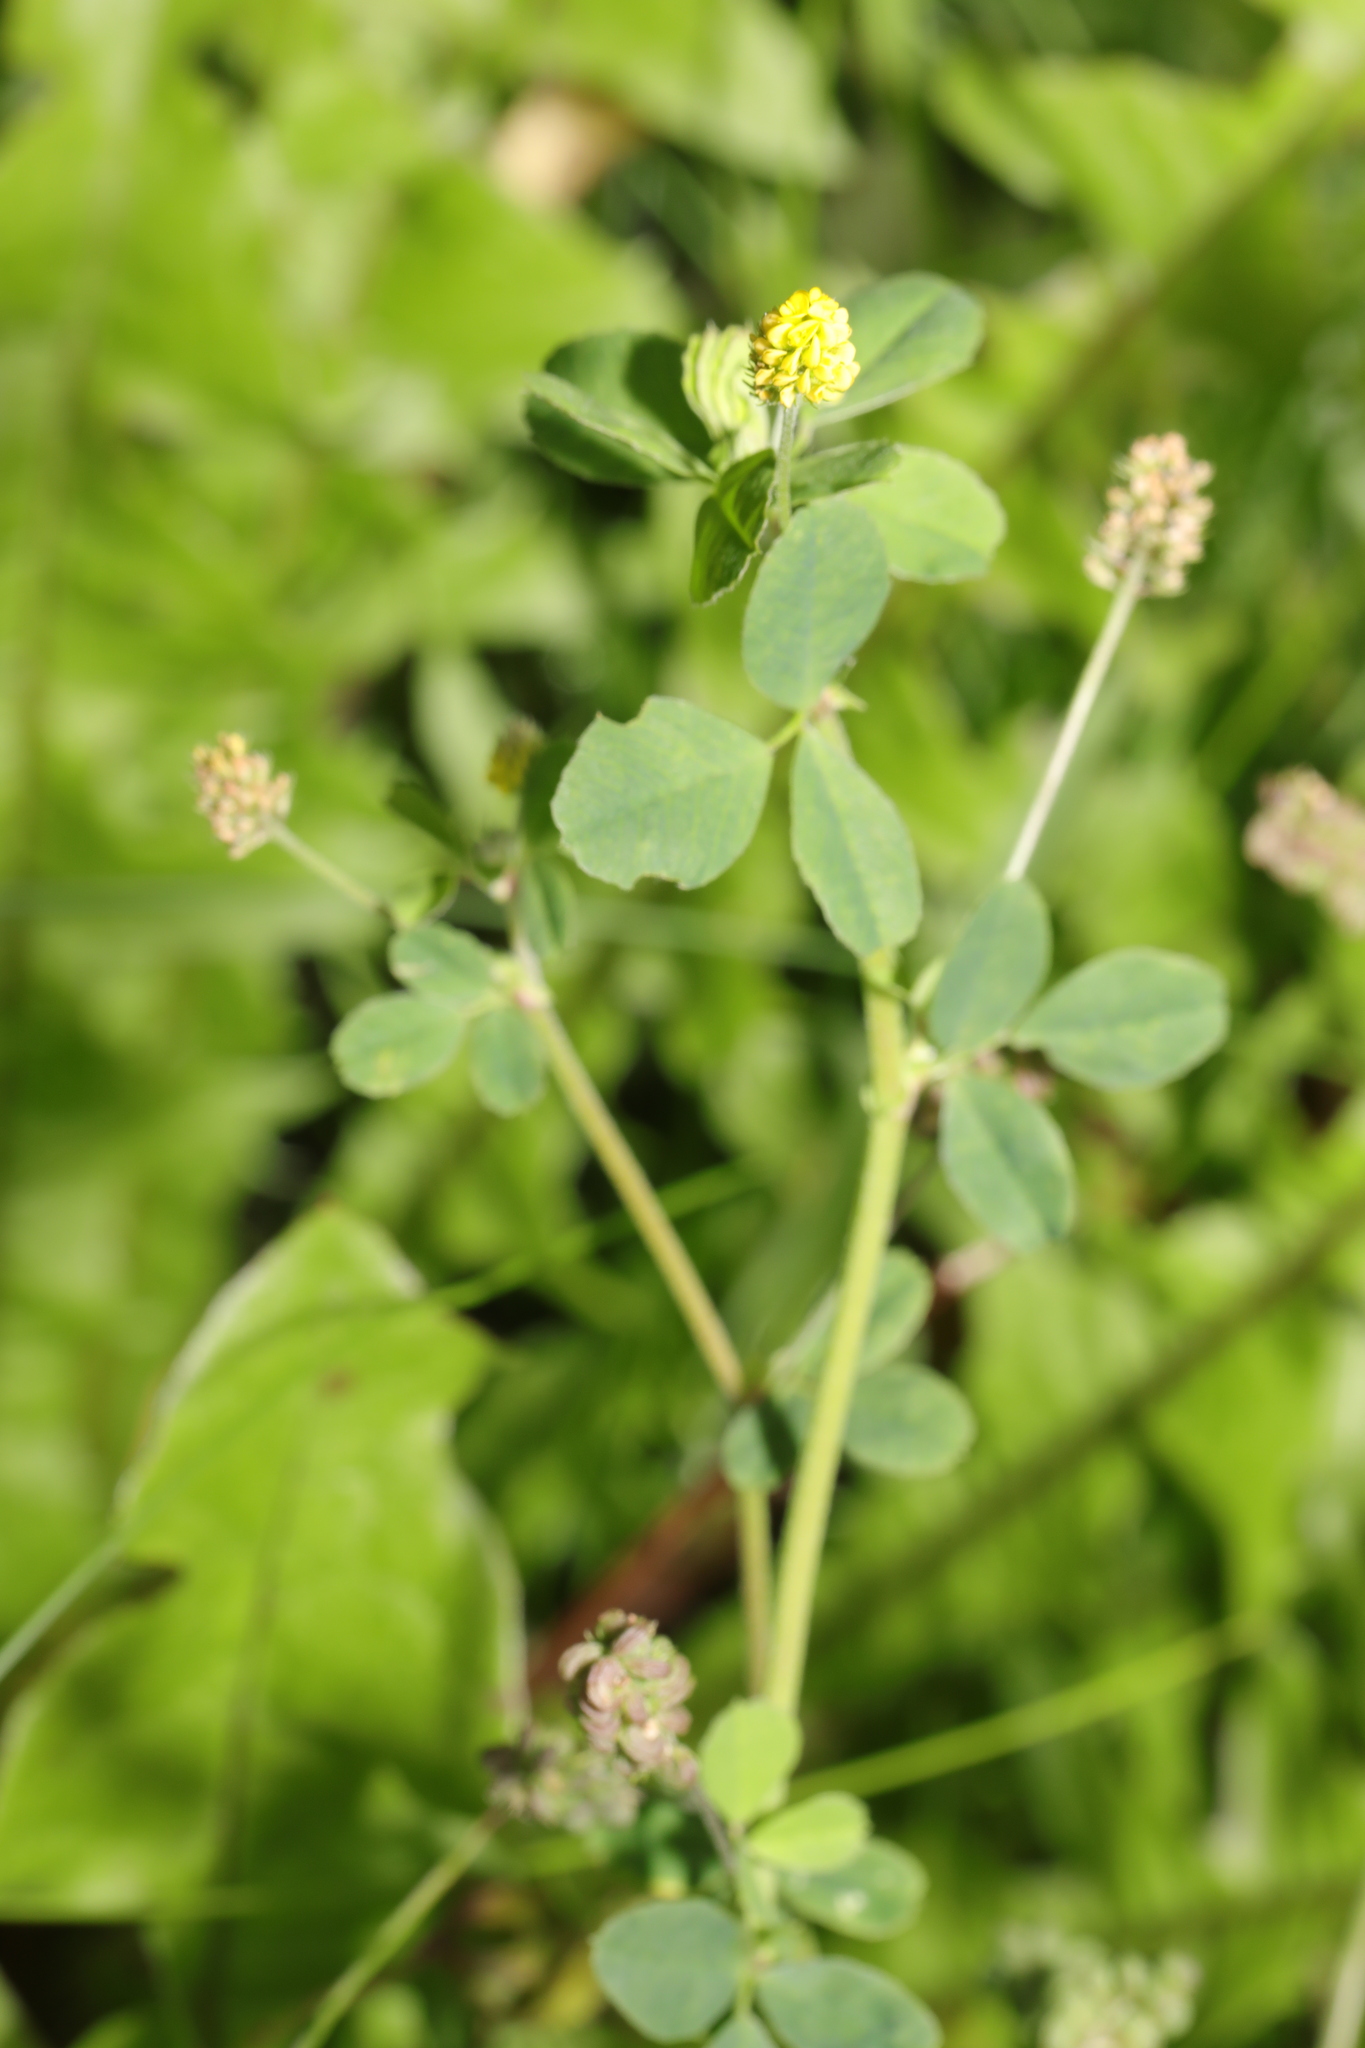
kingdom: Plantae
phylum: Tracheophyta
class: Magnoliopsida
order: Fabales
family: Fabaceae
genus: Medicago
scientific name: Medicago lupulina
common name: Black medick
